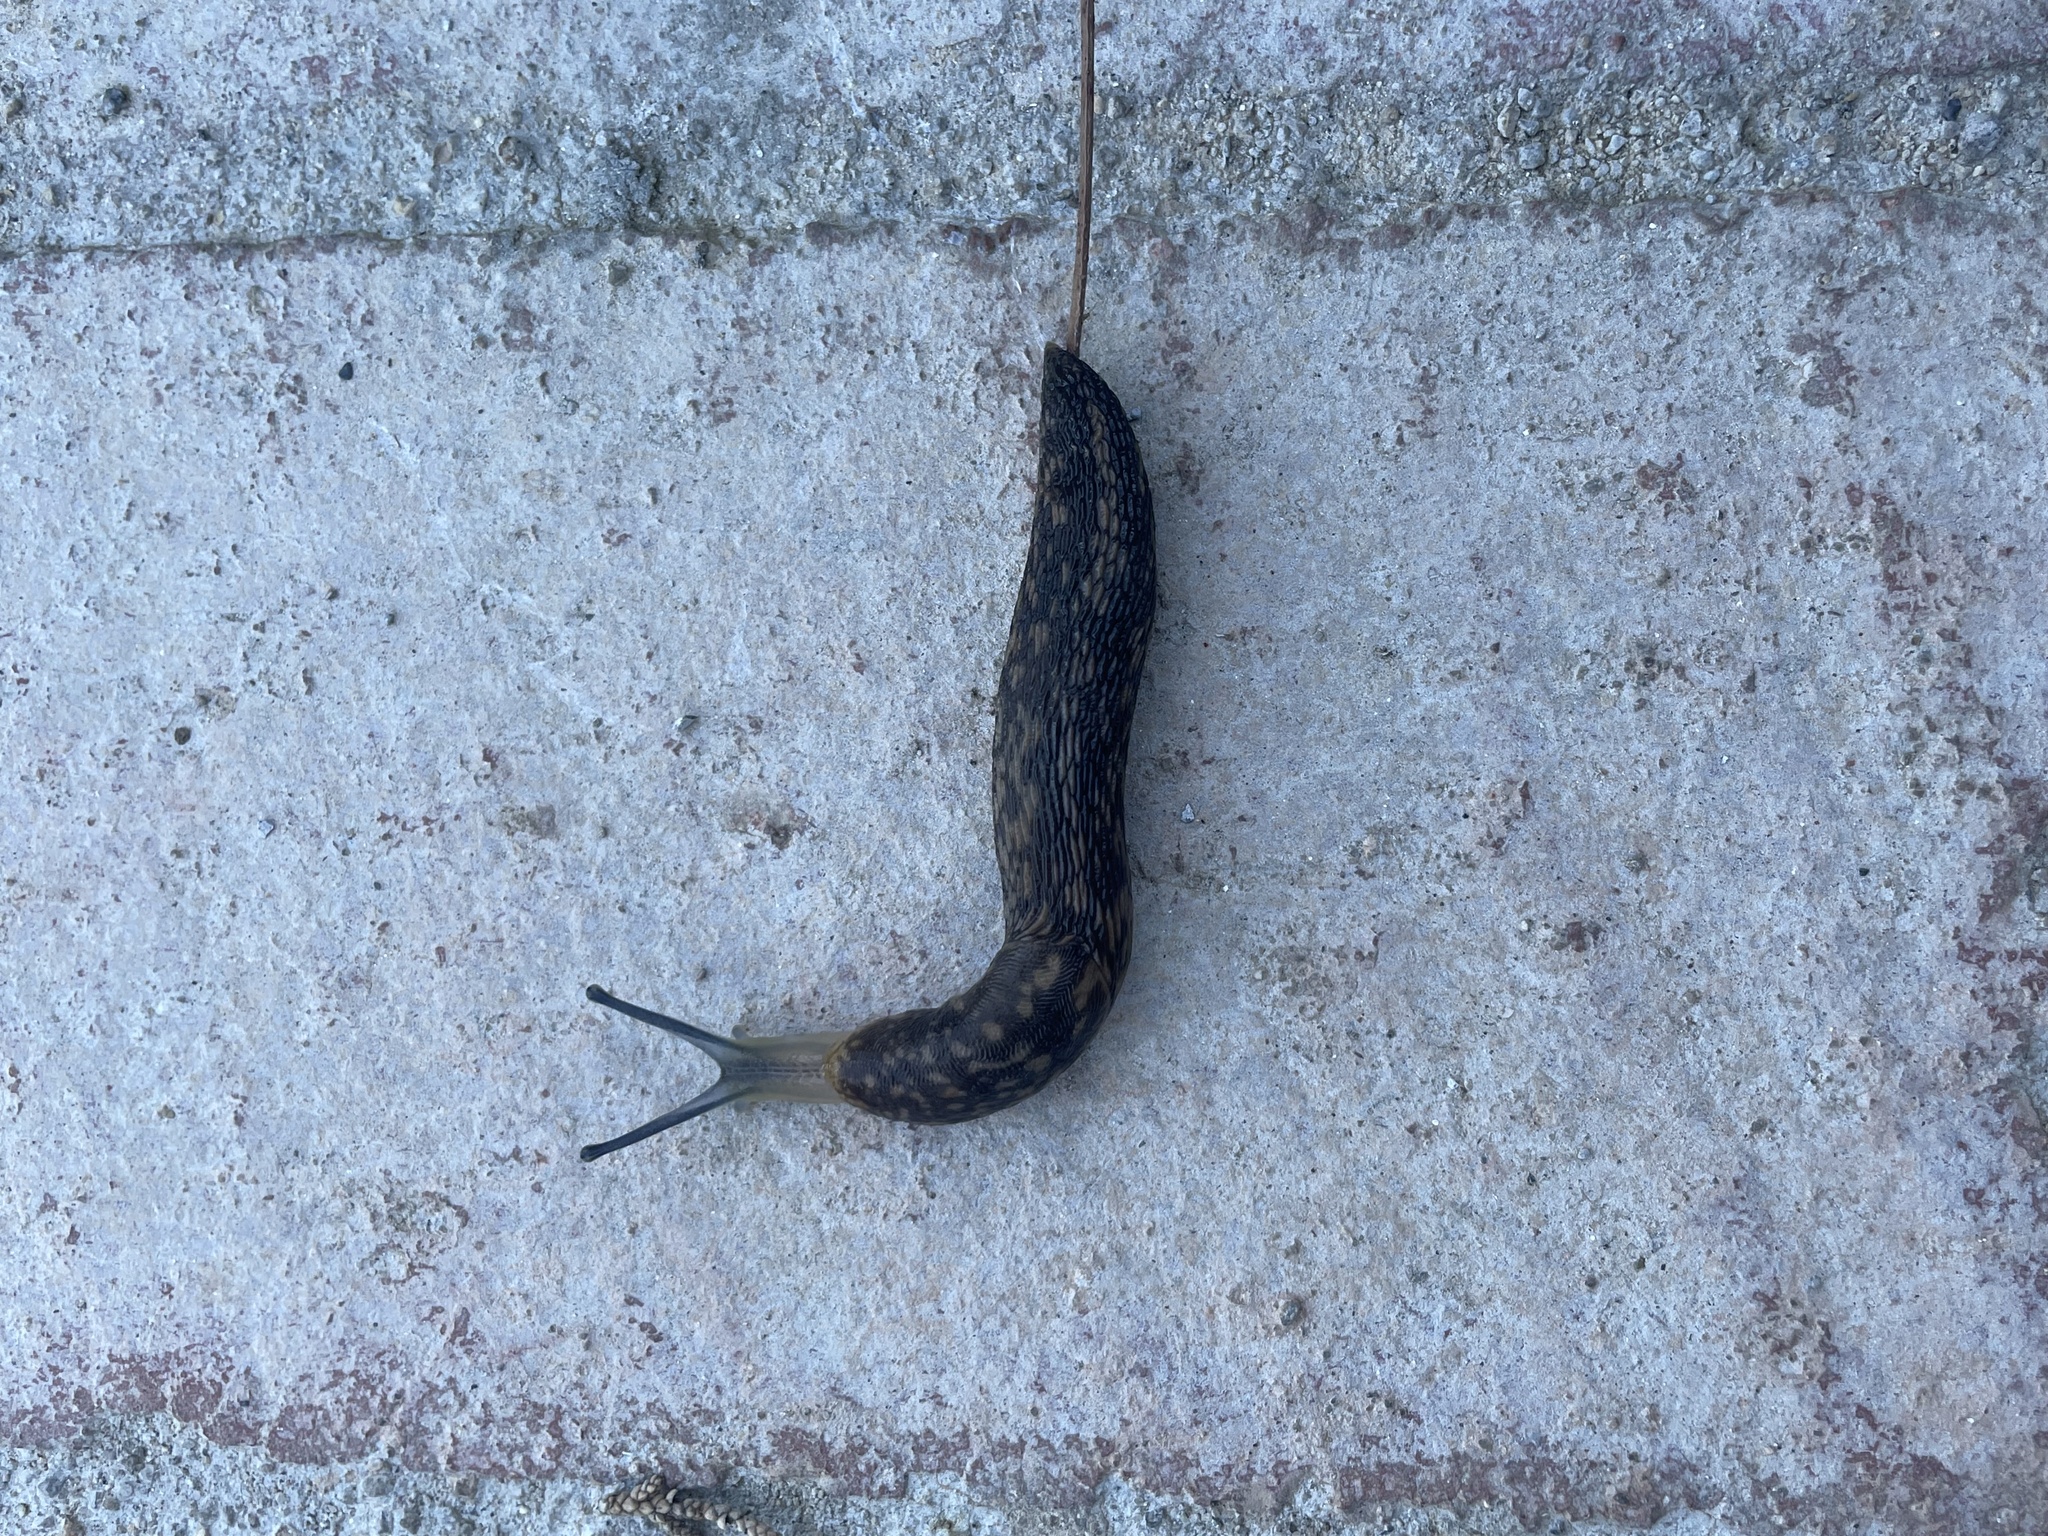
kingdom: Animalia
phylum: Mollusca
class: Gastropoda
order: Stylommatophora
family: Limacidae
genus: Limacus
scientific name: Limacus flavus
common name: Yellow gardenslug
